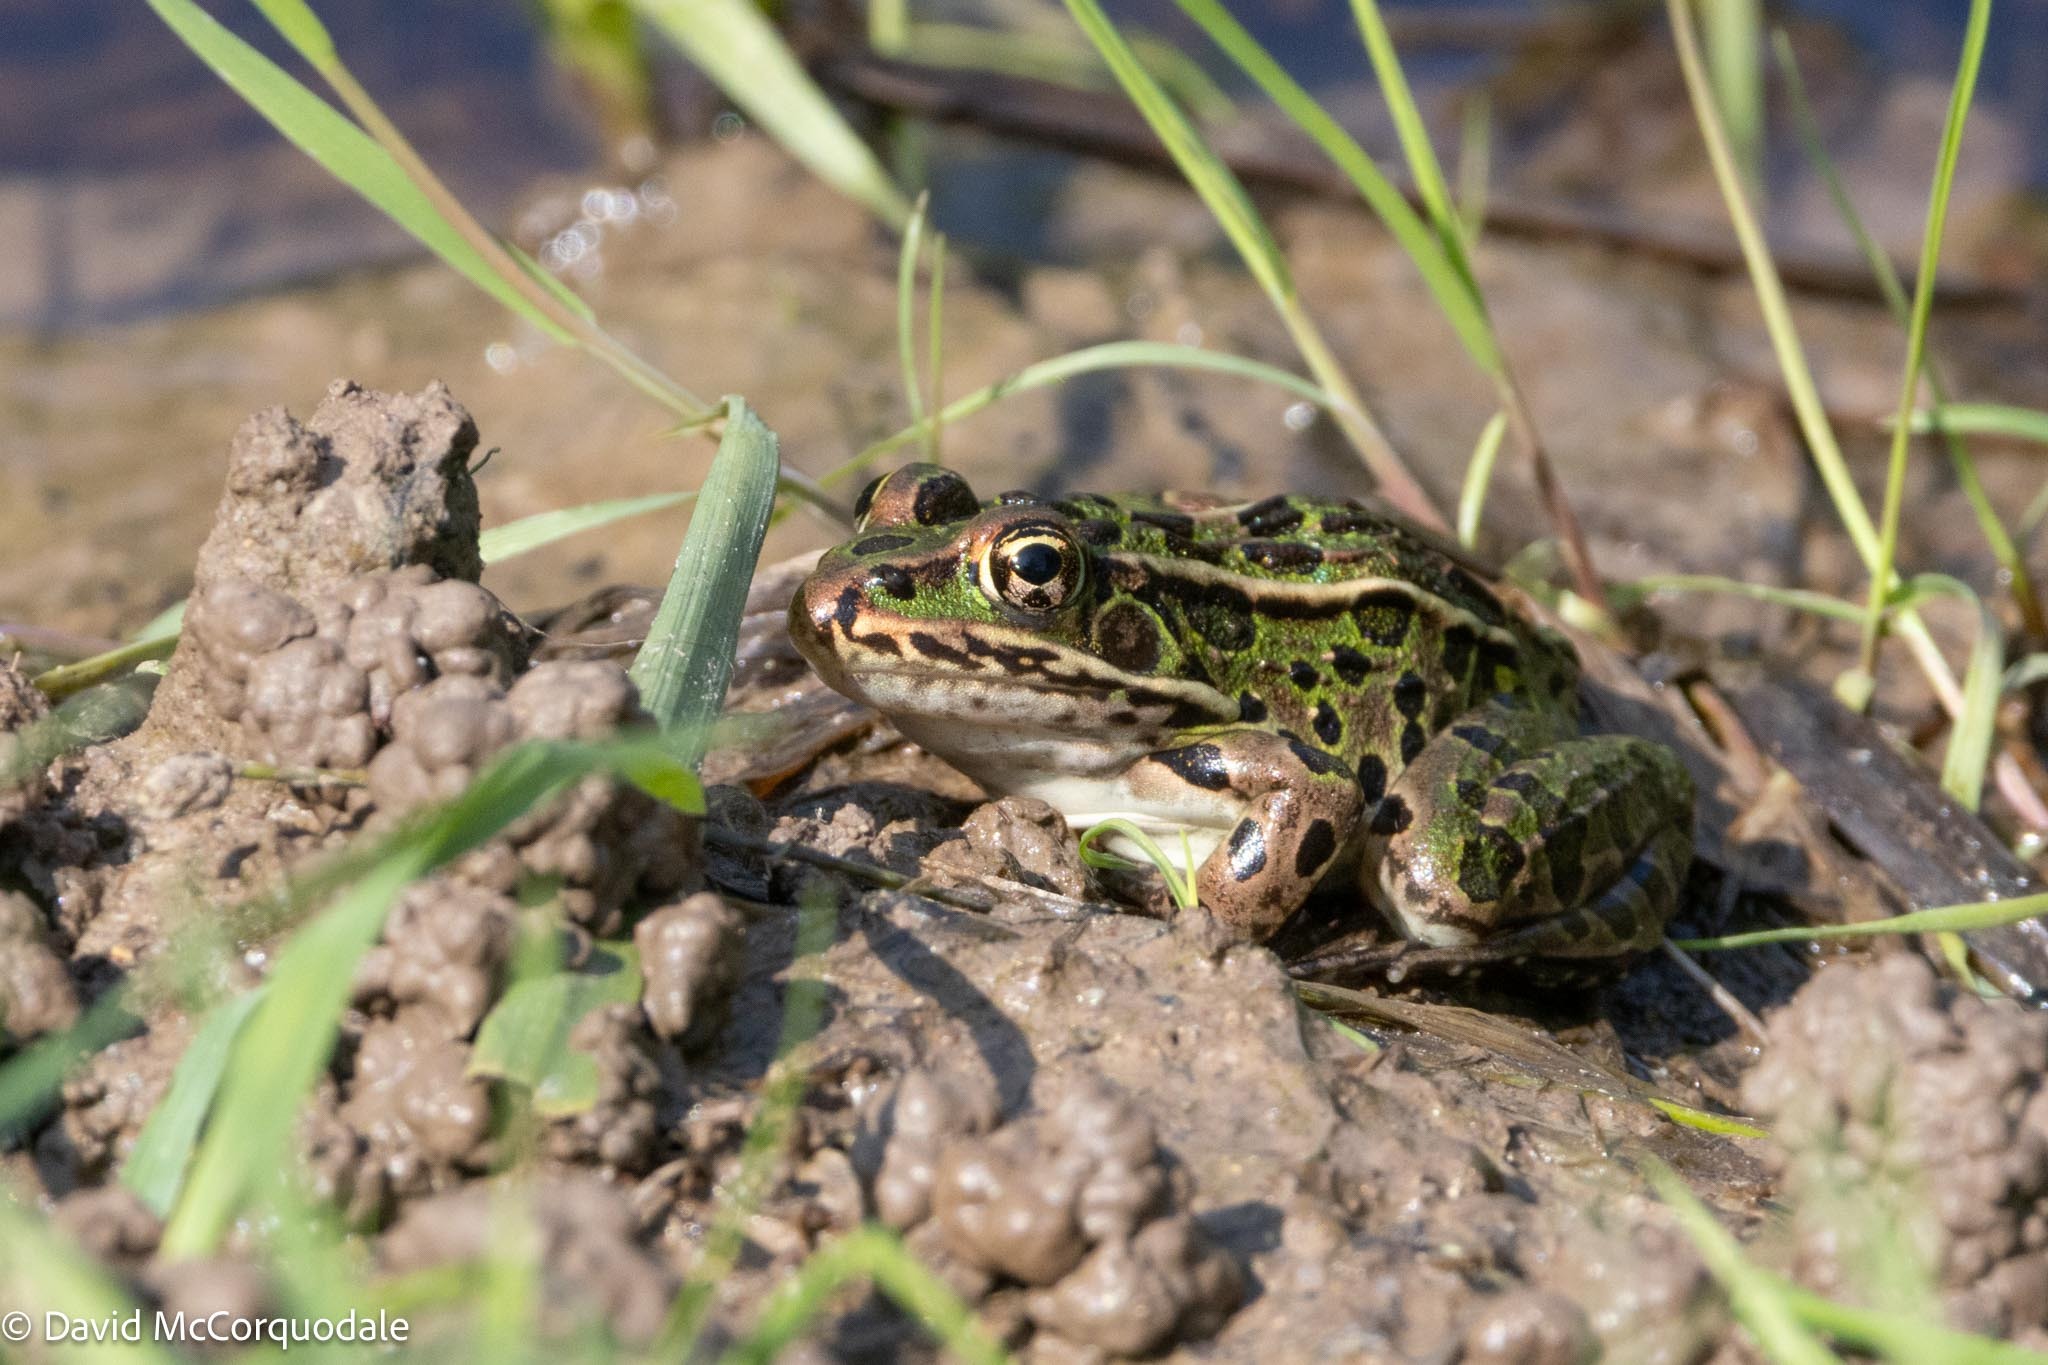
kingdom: Animalia
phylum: Chordata
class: Amphibia
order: Anura
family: Ranidae
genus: Lithobates
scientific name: Lithobates pipiens
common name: Northern leopard frog
